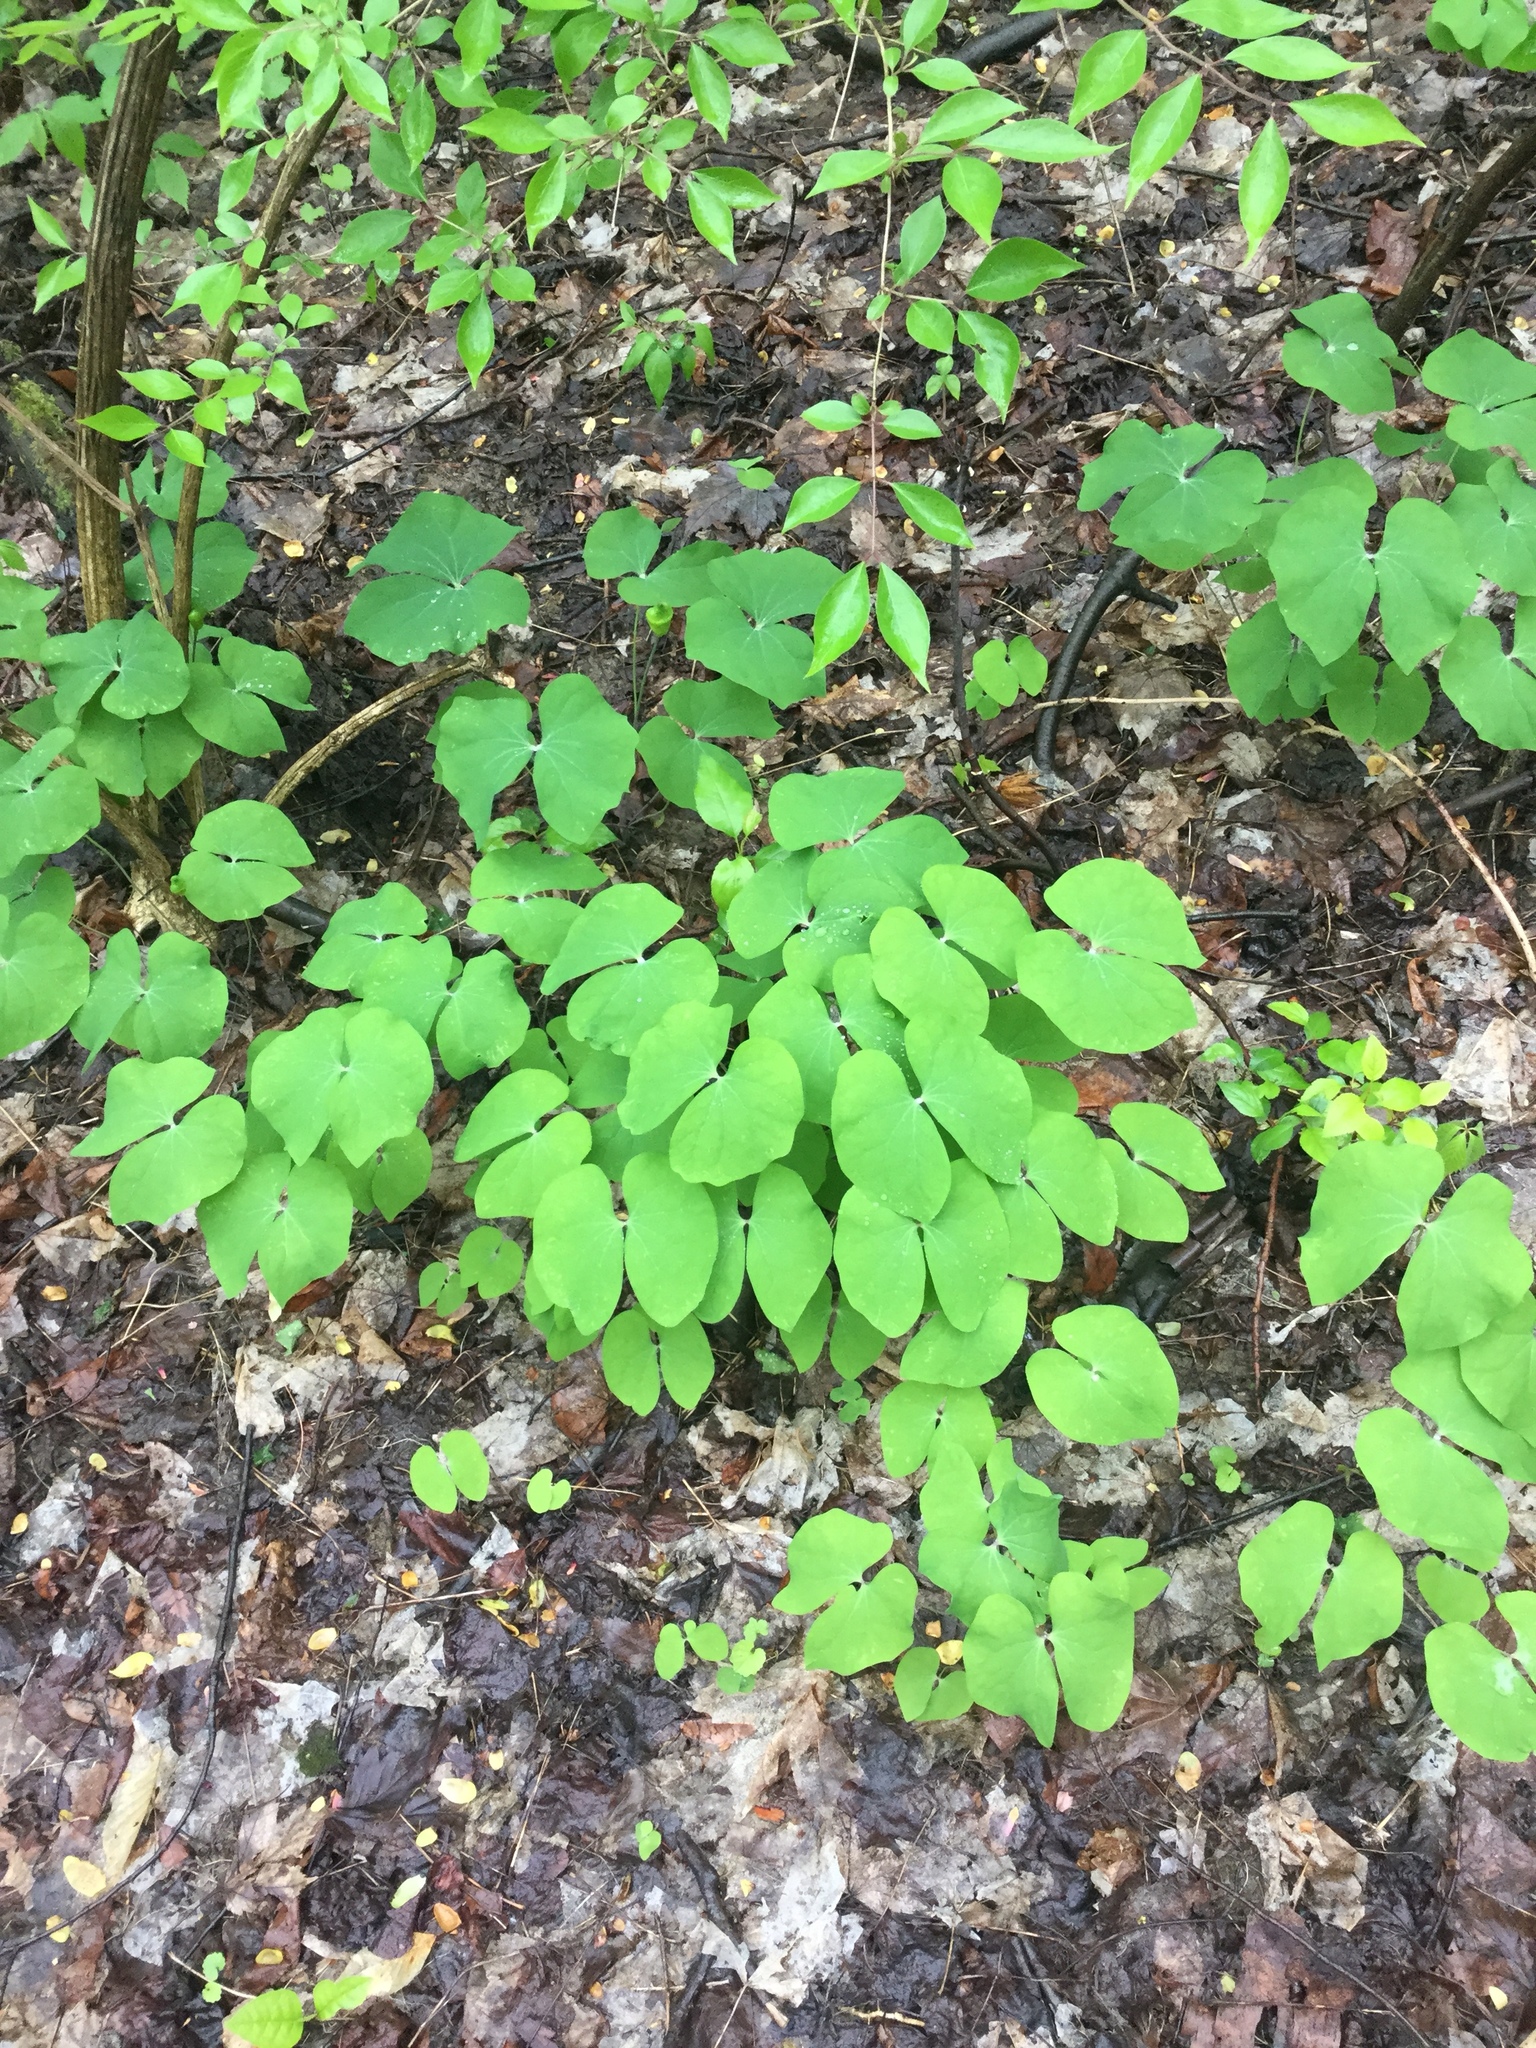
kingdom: Plantae
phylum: Tracheophyta
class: Magnoliopsida
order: Ranunculales
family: Berberidaceae
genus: Jeffersonia
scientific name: Jeffersonia diphylla
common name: Rheumatism-root
